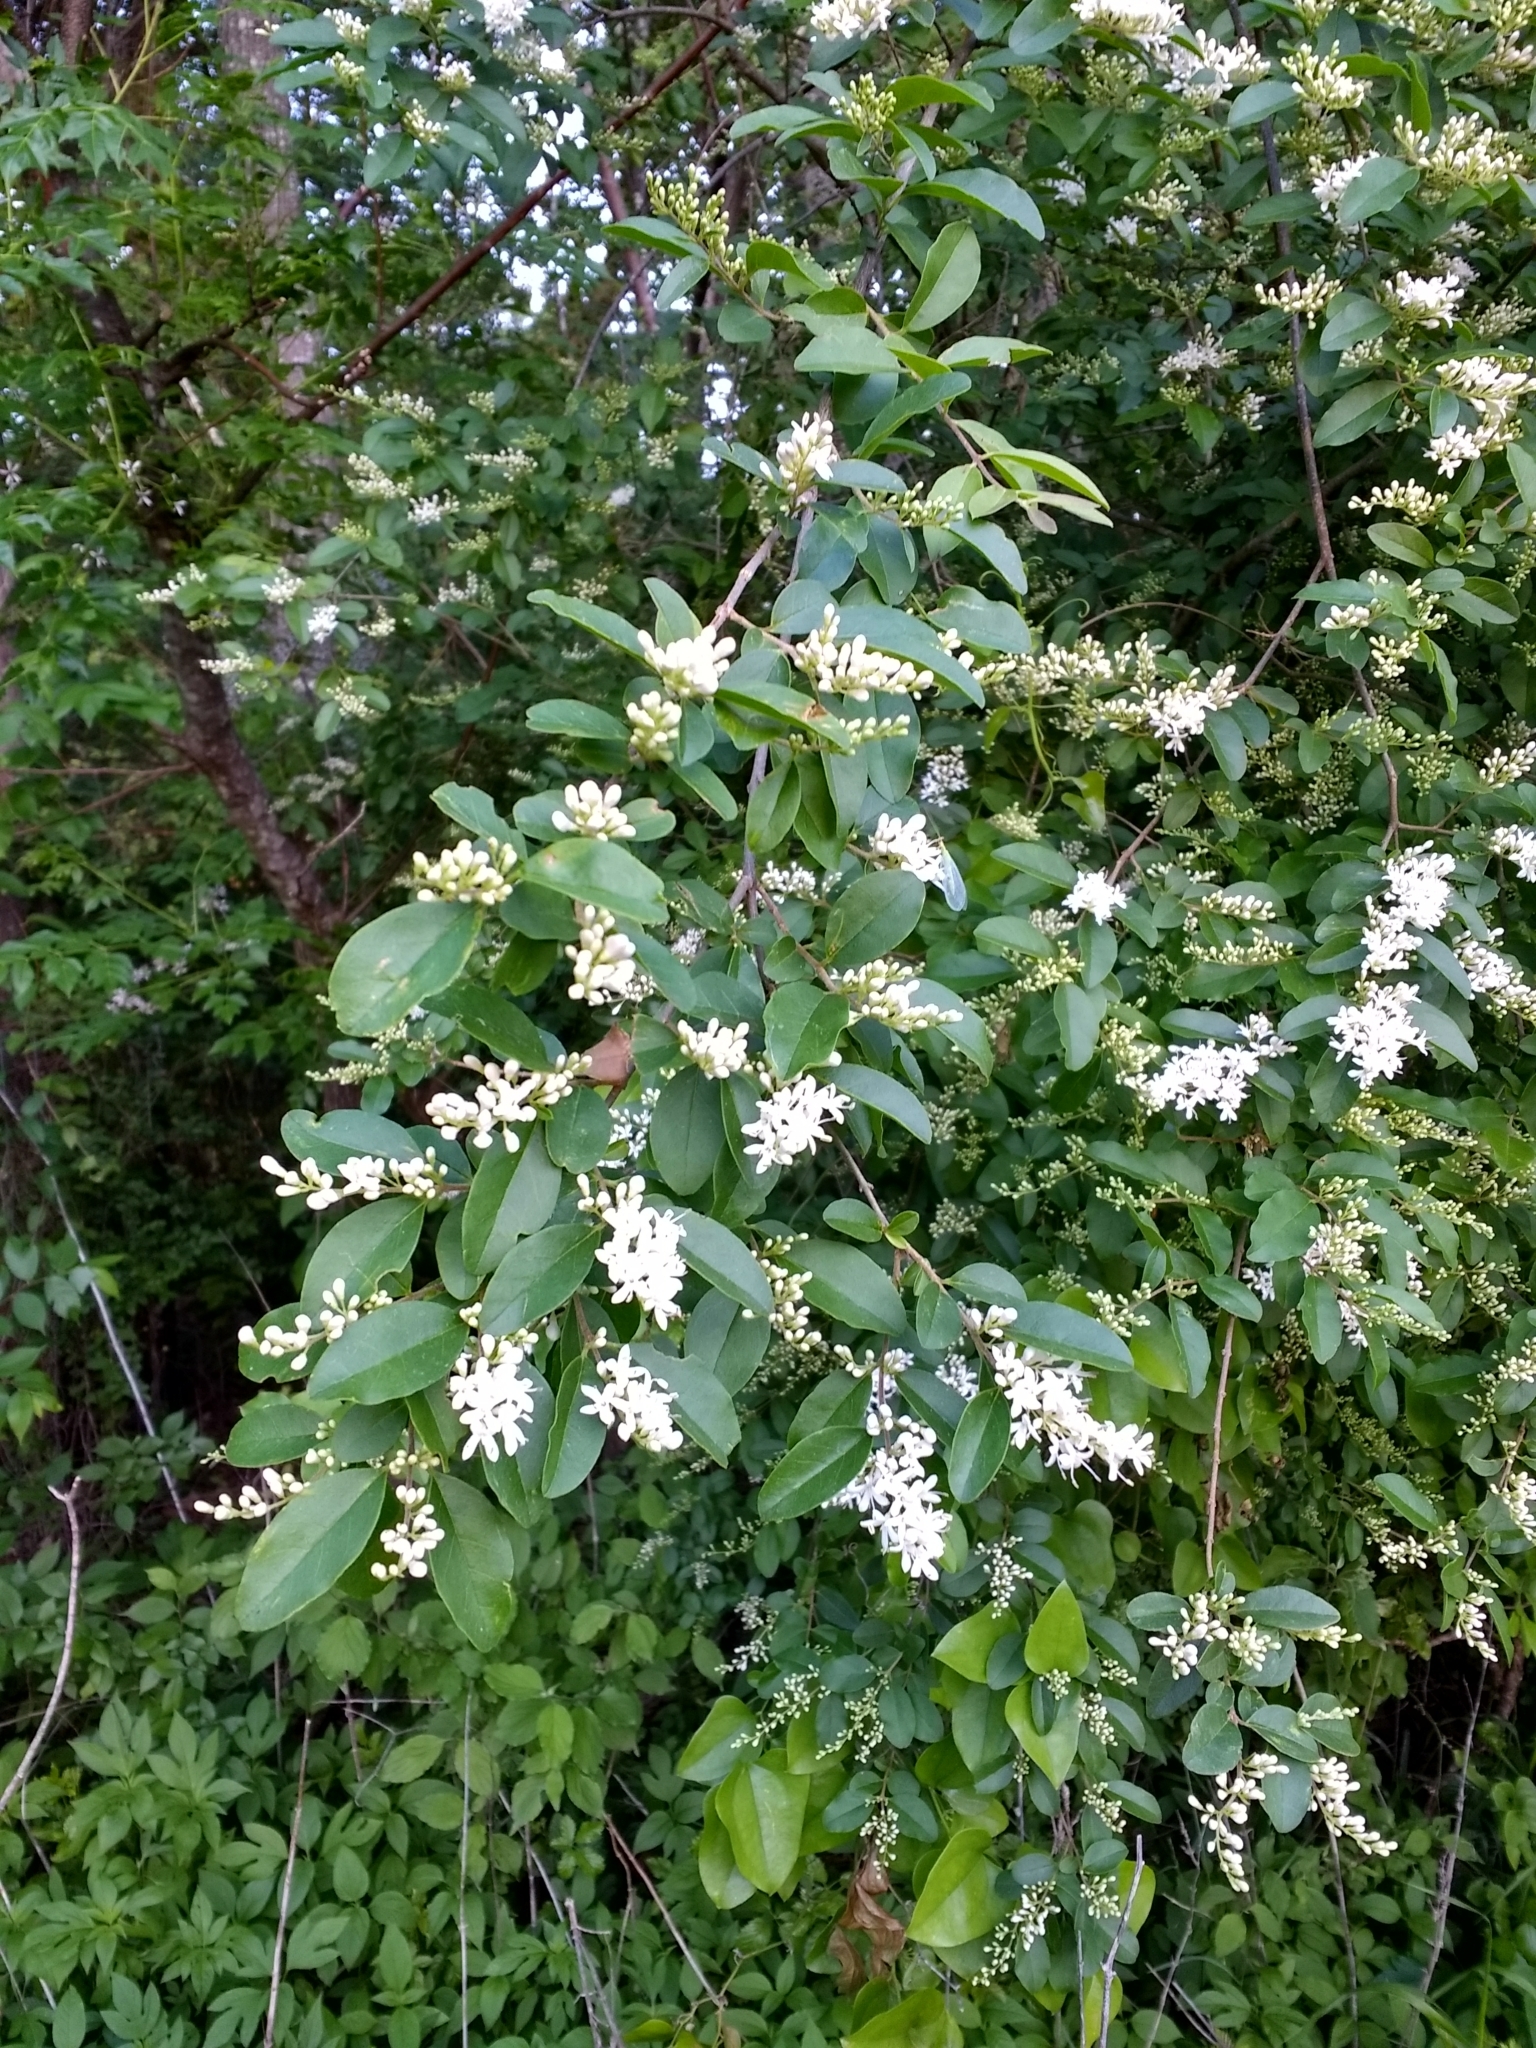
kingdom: Plantae
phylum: Tracheophyta
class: Magnoliopsida
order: Lamiales
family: Oleaceae
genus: Ligustrum
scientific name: Ligustrum sinense
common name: Chinese privet
